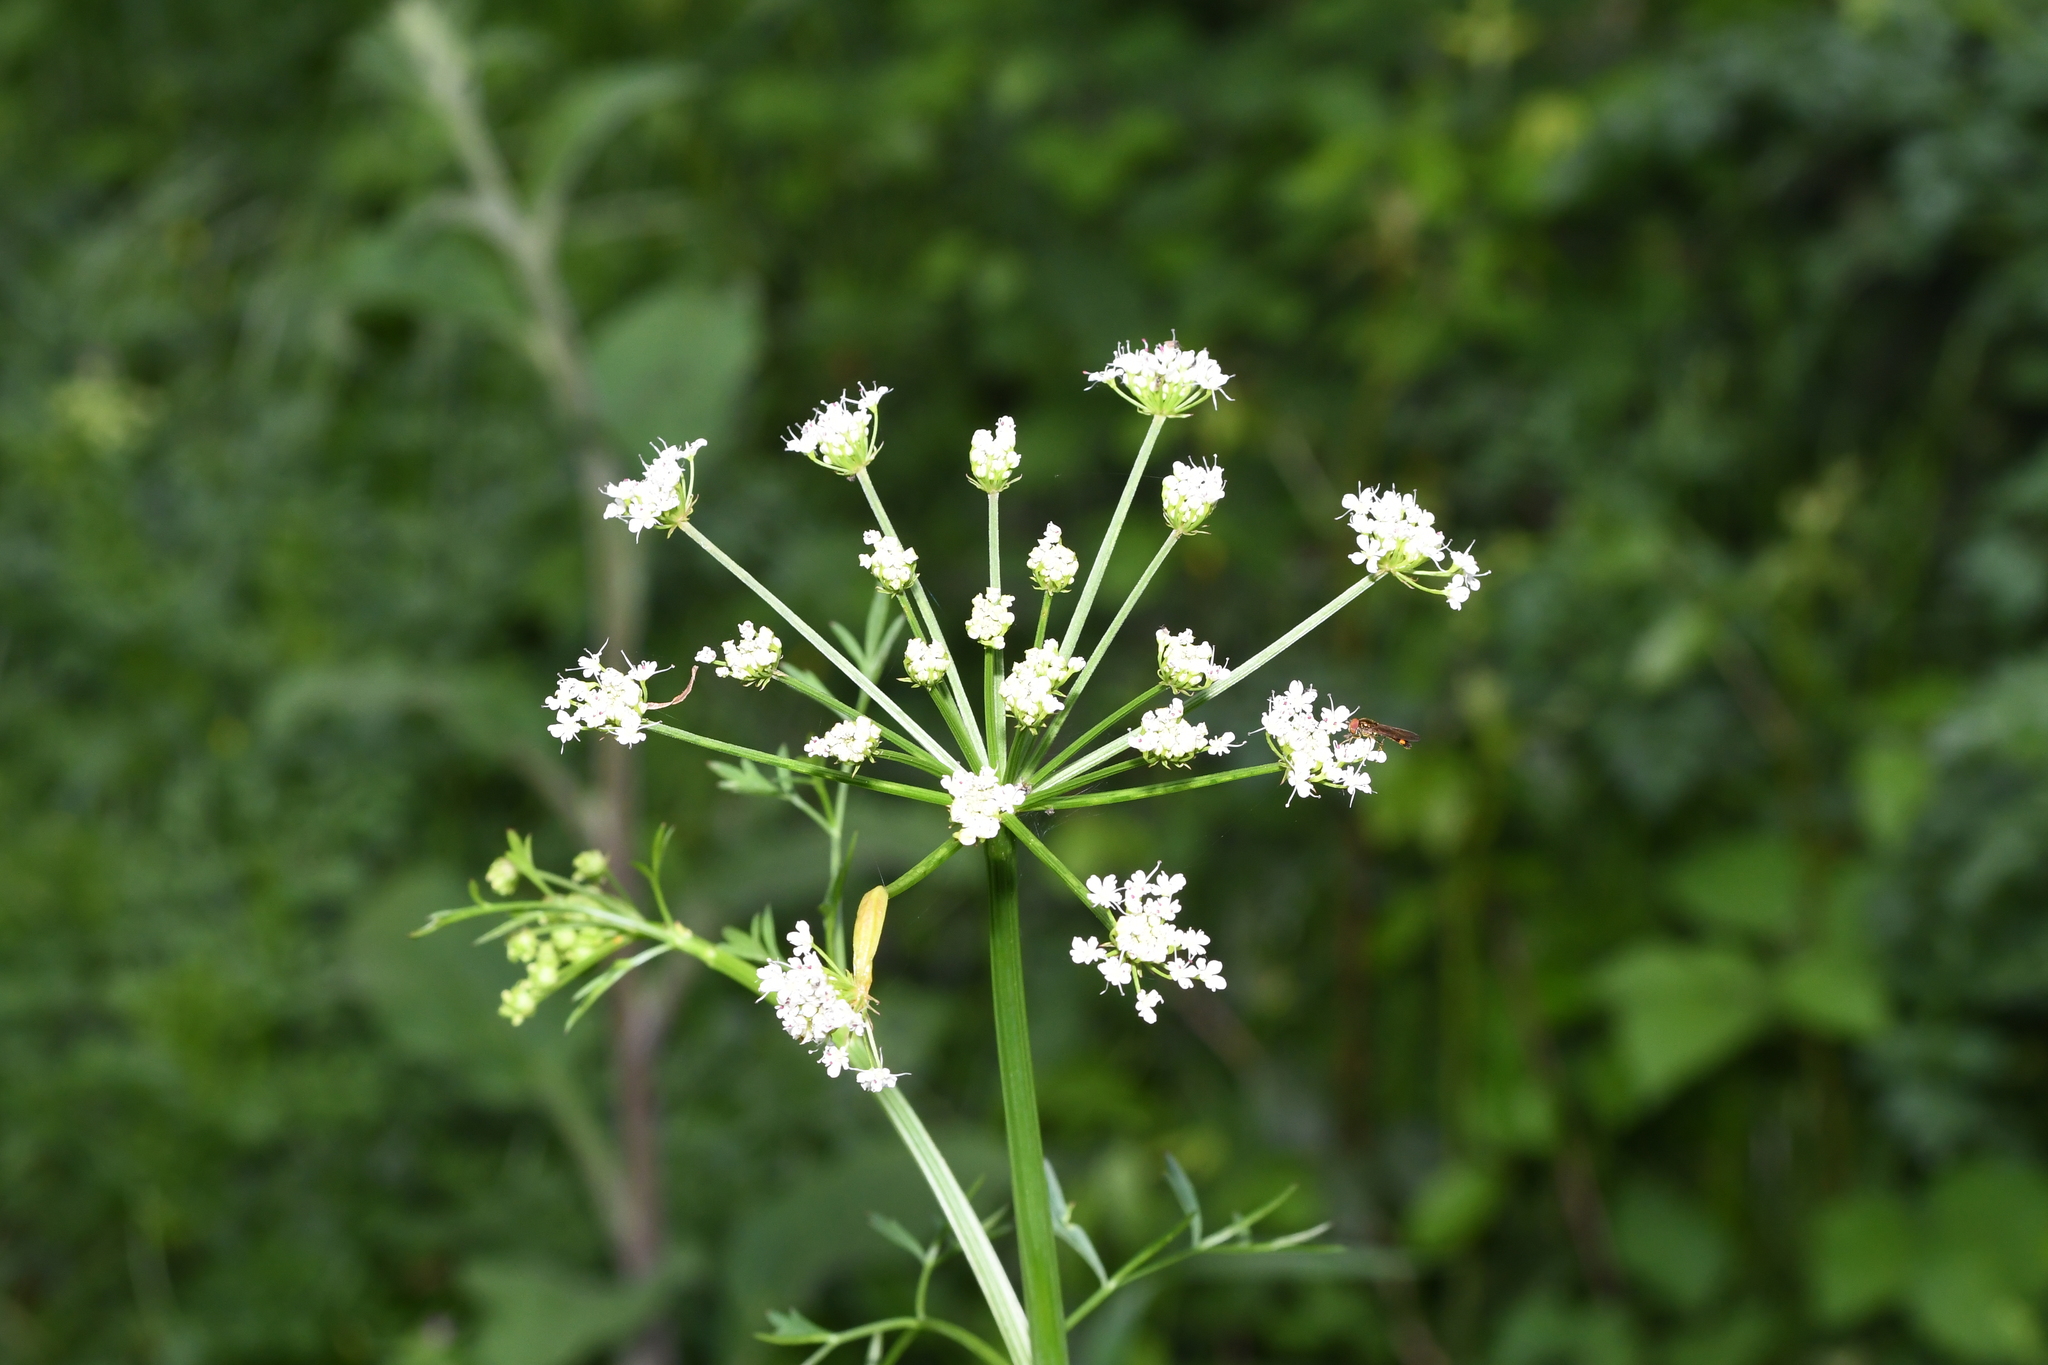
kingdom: Plantae
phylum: Tracheophyta
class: Magnoliopsida
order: Apiales
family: Apiaceae
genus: Oenanthe
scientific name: Oenanthe crocata
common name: Hemlock water-dropwort
